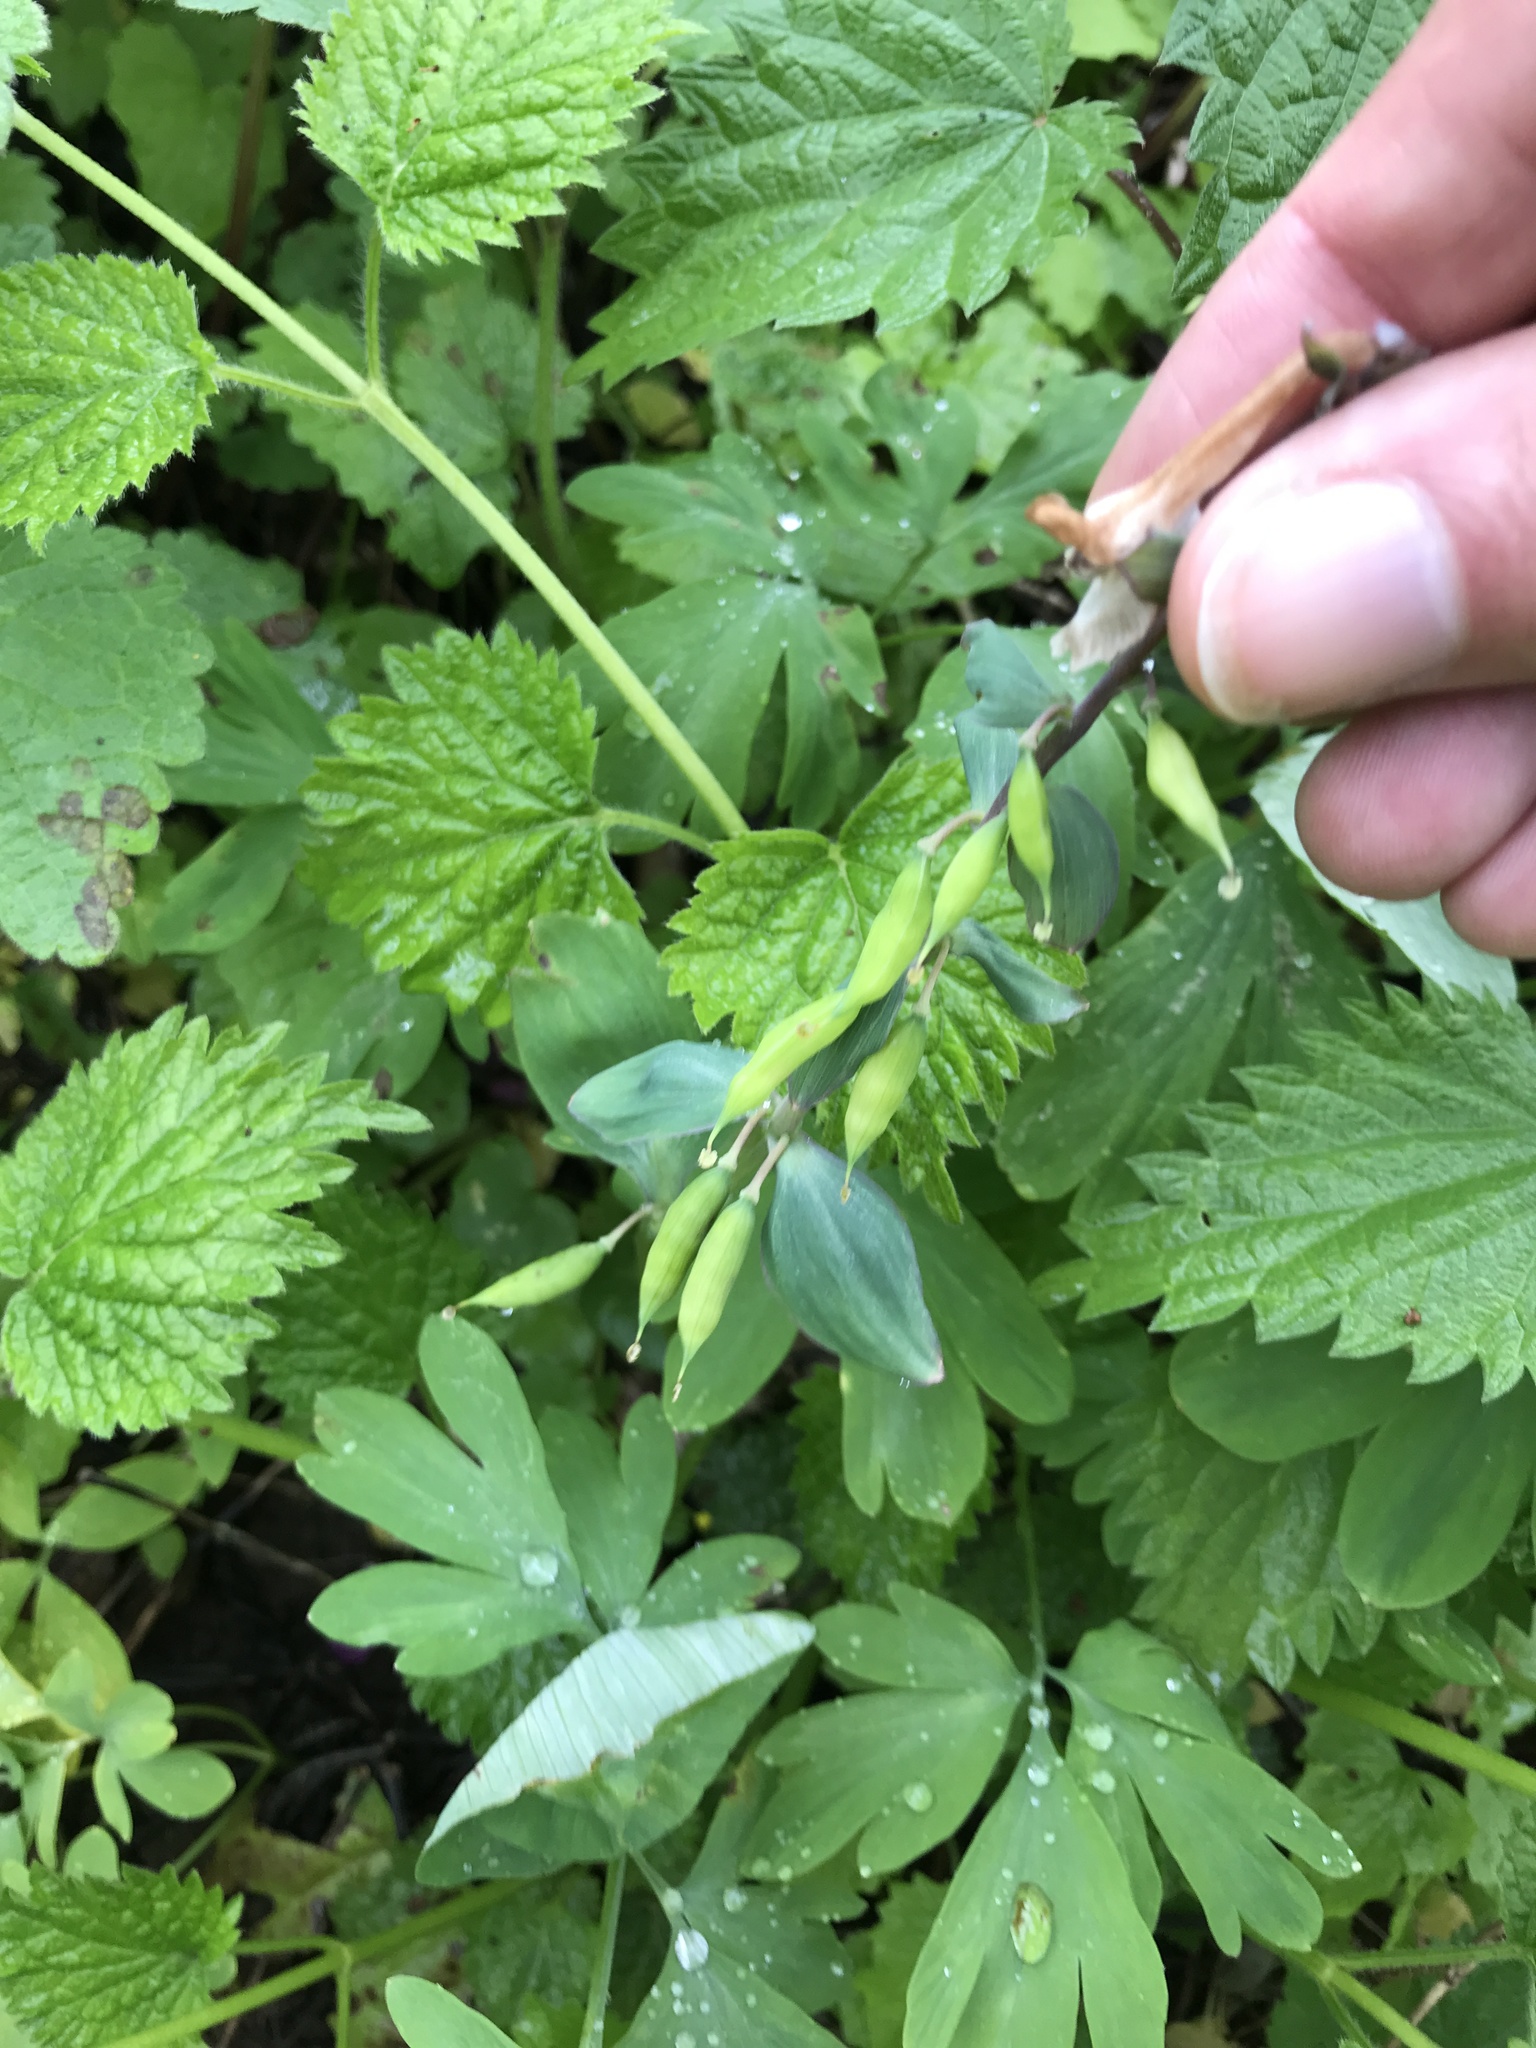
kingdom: Plantae
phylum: Tracheophyta
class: Magnoliopsida
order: Ranunculales
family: Papaveraceae
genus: Corydalis
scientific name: Corydalis cava
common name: Hollowroot
